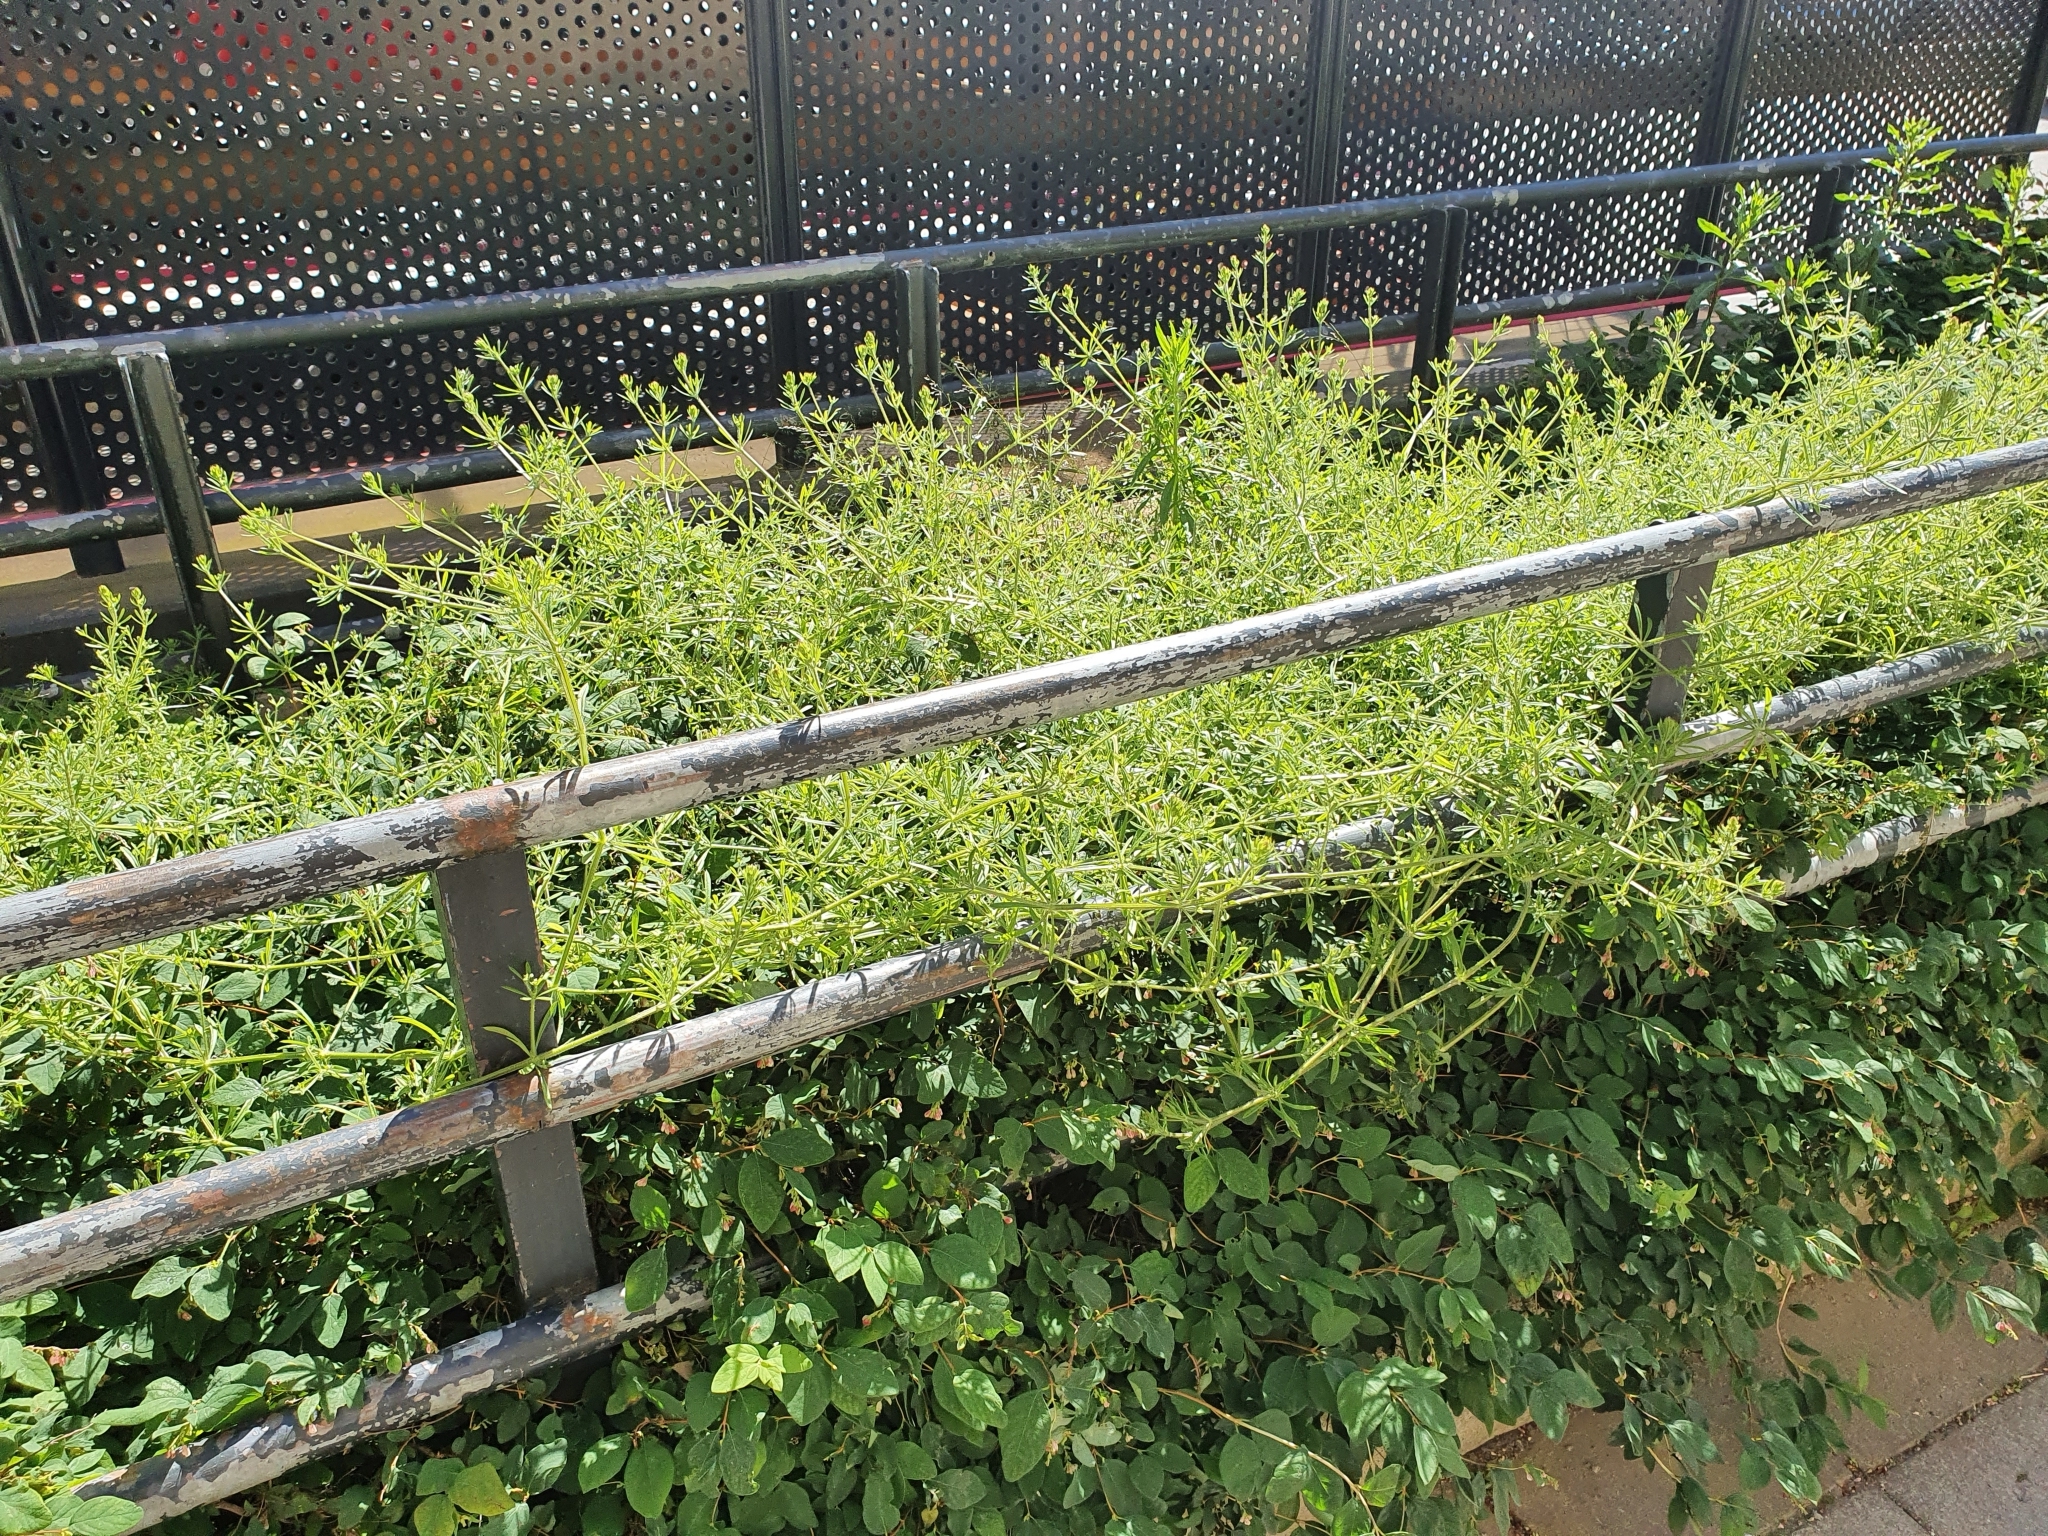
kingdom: Plantae
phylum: Tracheophyta
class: Magnoliopsida
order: Gentianales
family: Rubiaceae
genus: Galium
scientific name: Galium aparine
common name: Cleavers
